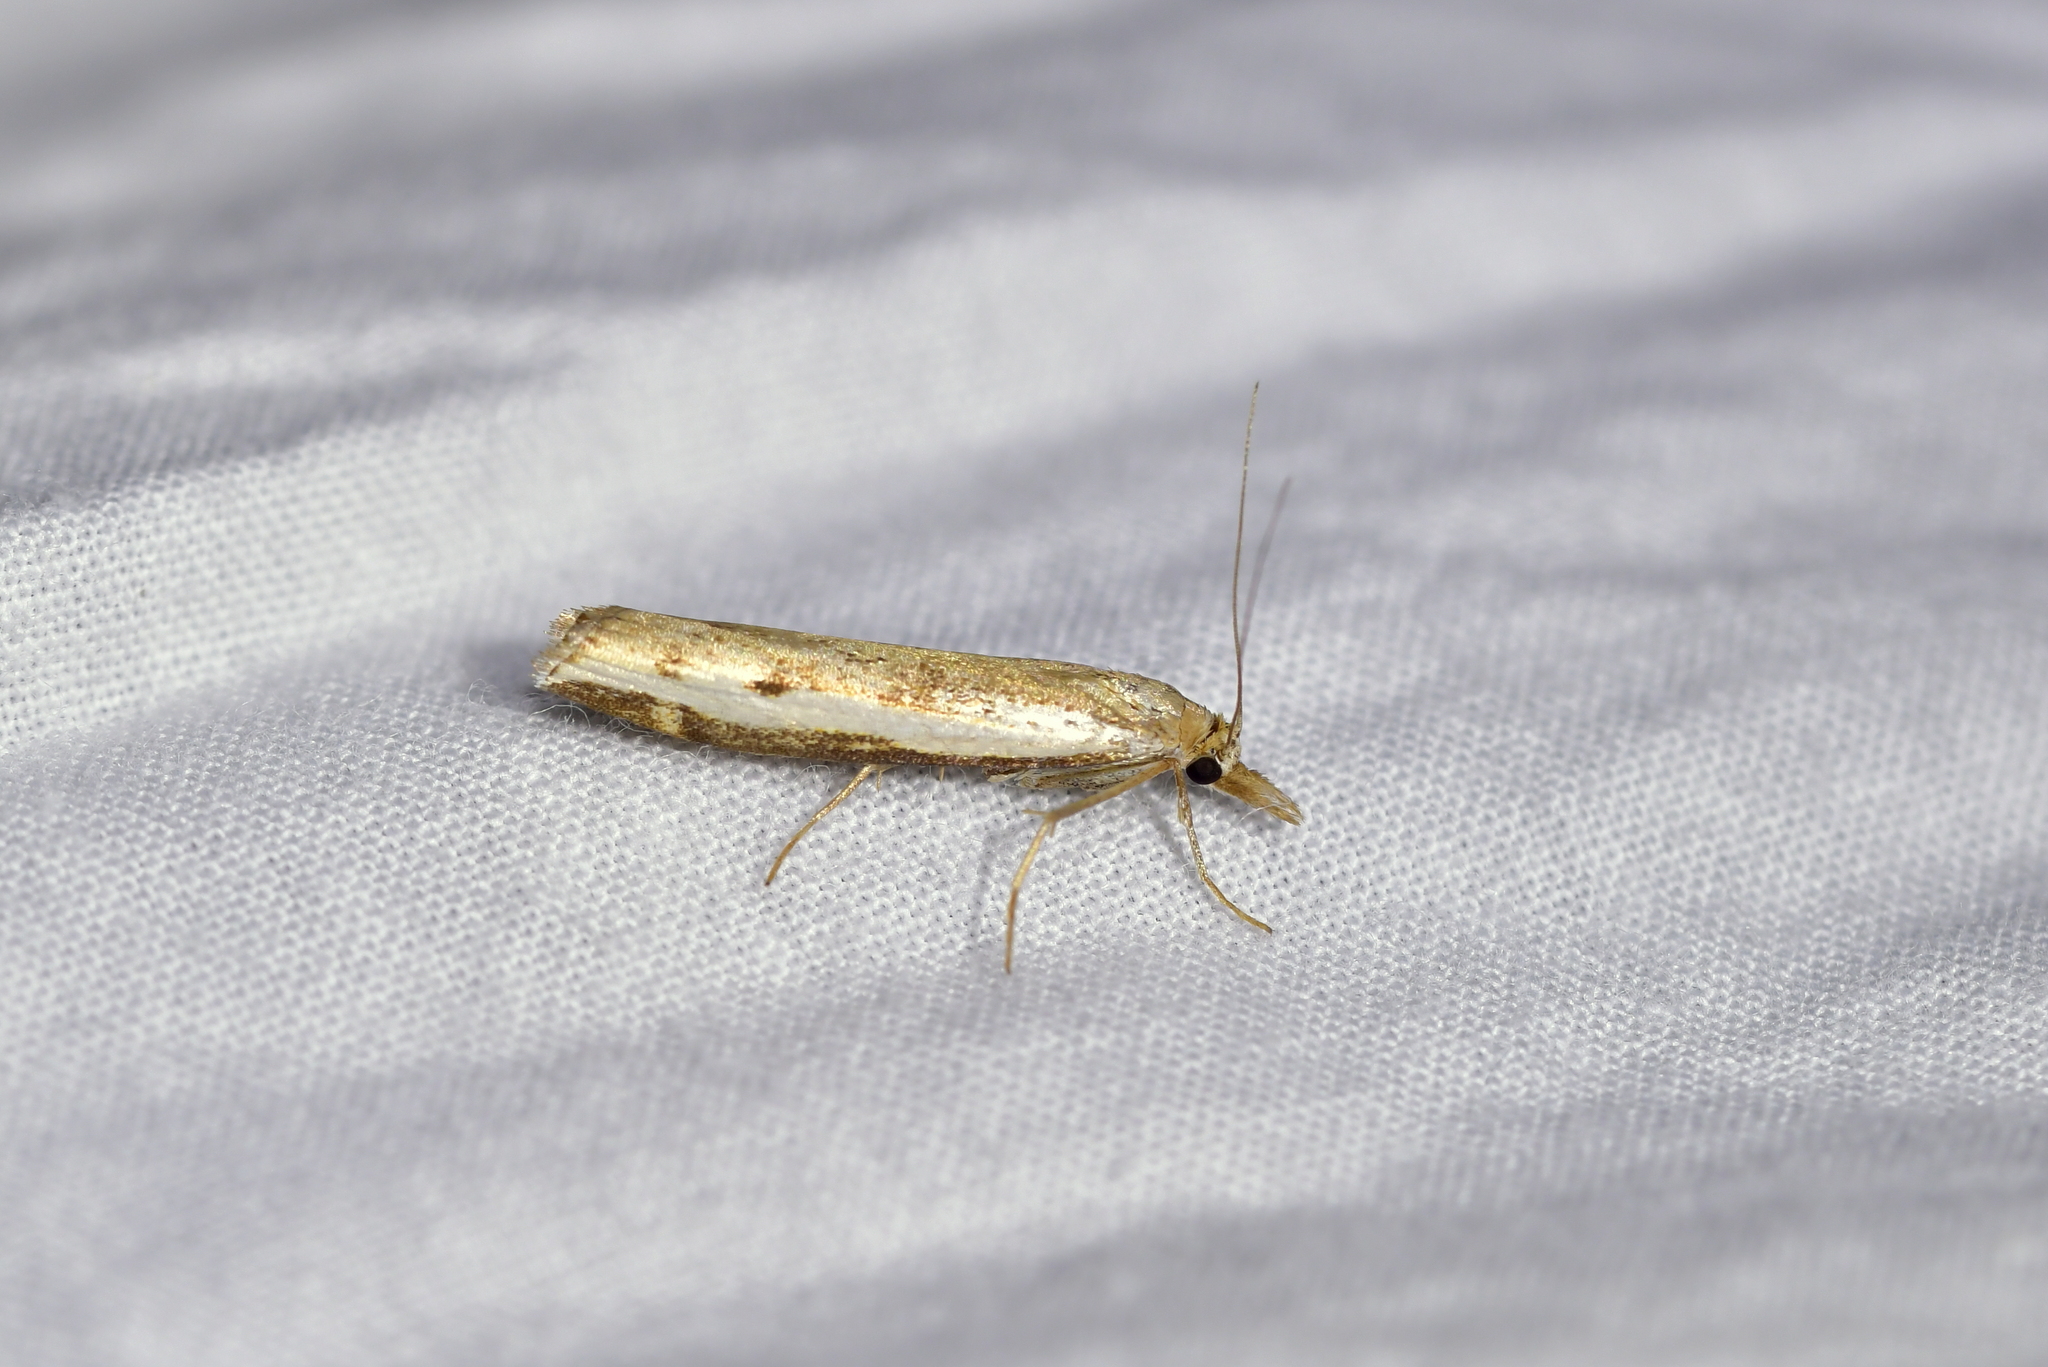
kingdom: Animalia
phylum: Arthropoda
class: Insecta
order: Lepidoptera
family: Crambidae
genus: Orocrambus
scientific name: Orocrambus flexuosellus
